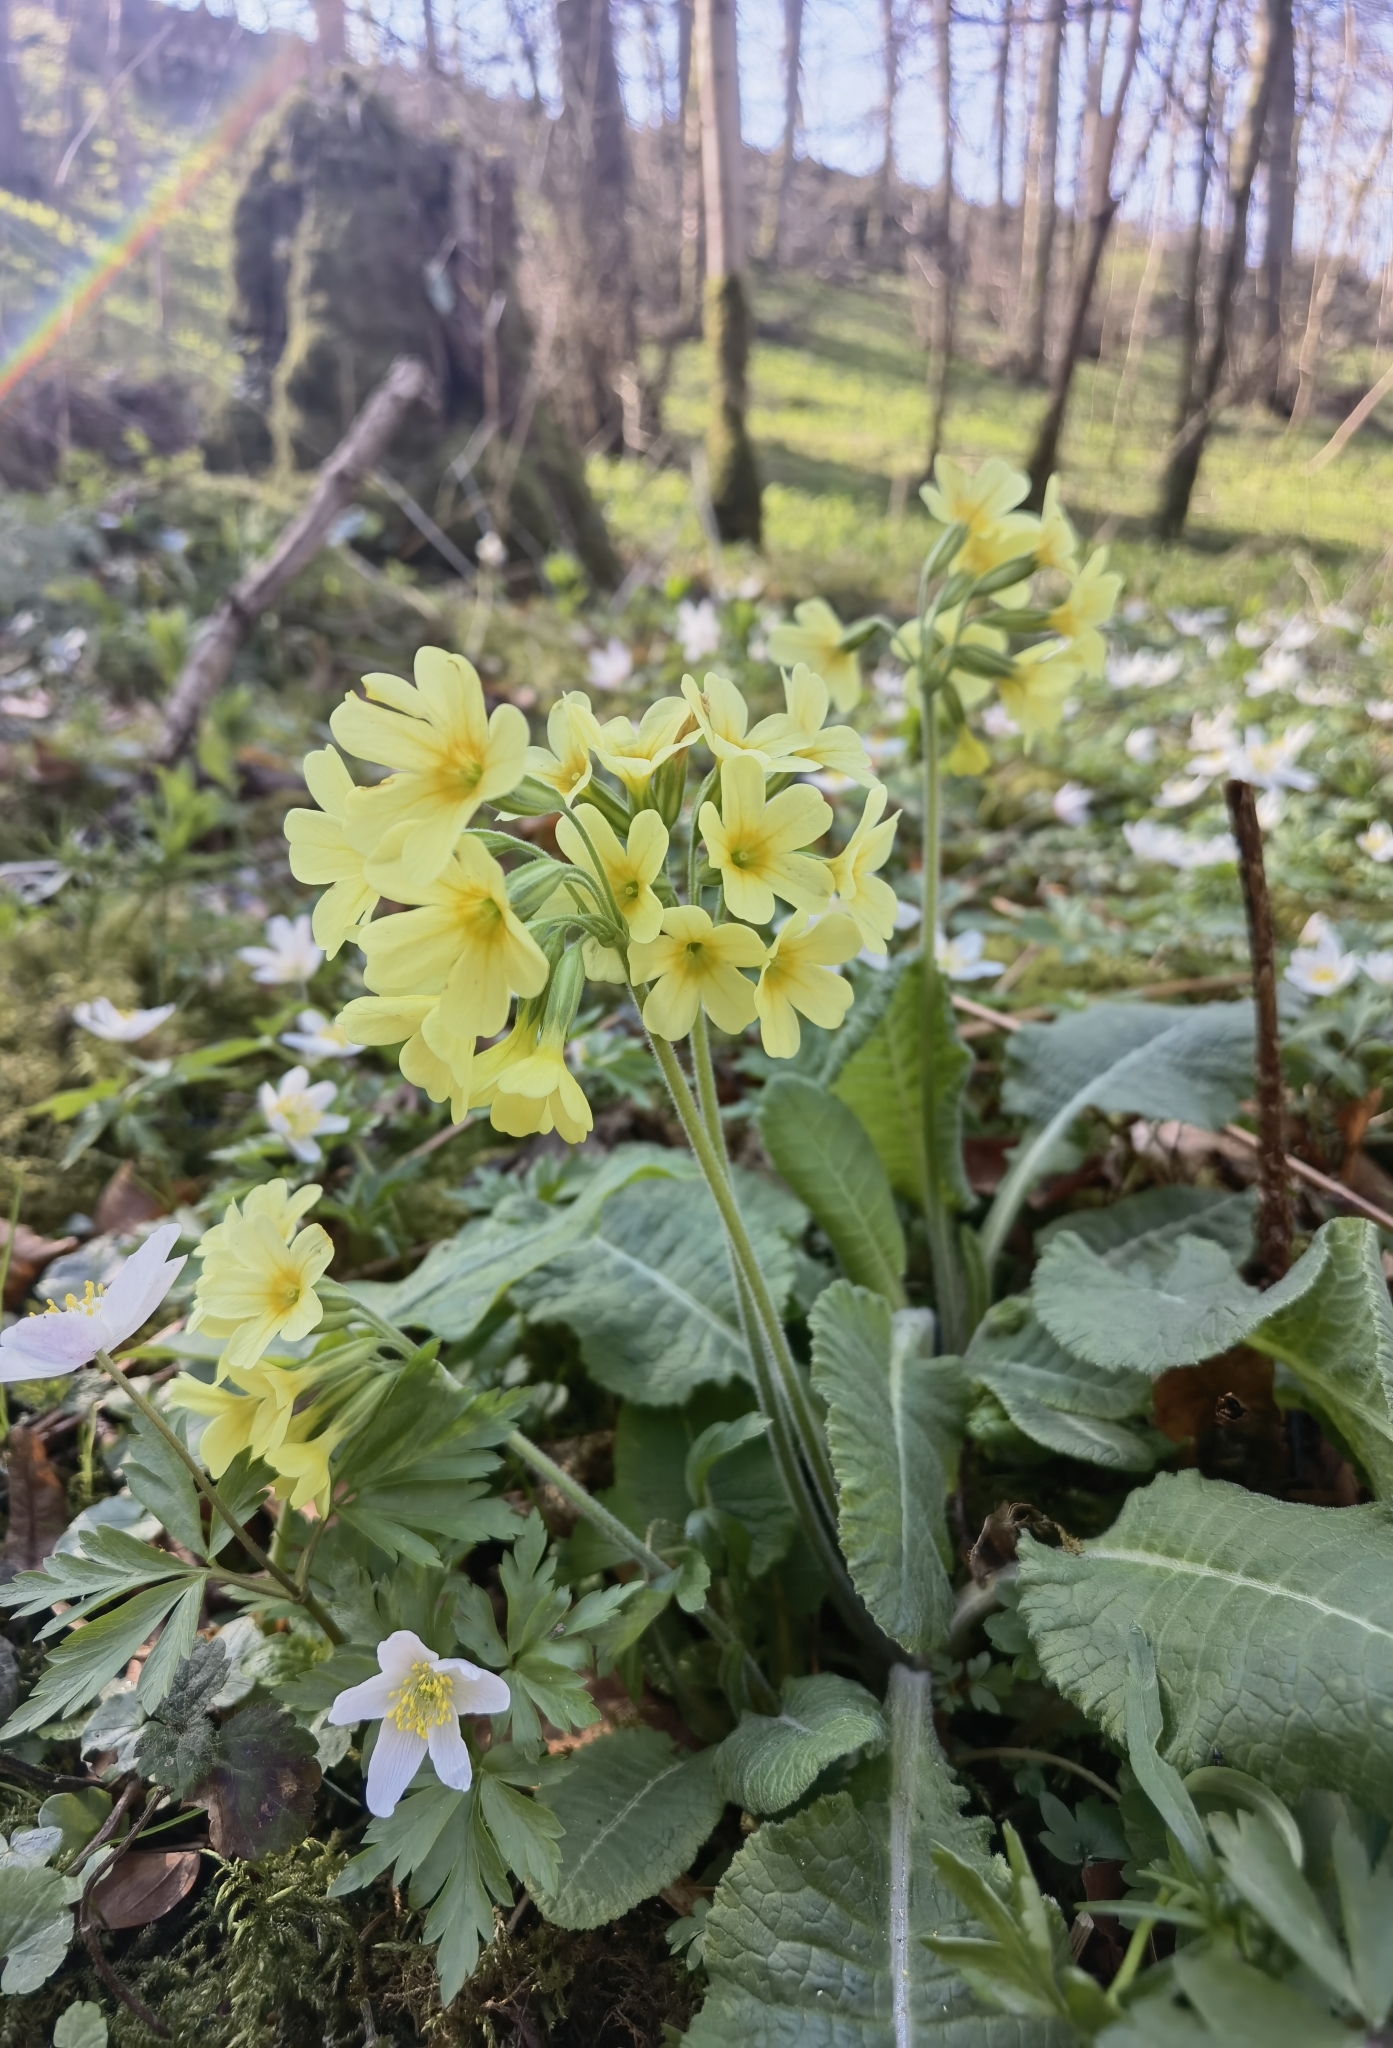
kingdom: Plantae
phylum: Tracheophyta
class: Magnoliopsida
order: Ericales
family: Primulaceae
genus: Primula
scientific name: Primula elatior
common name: Oxlip
